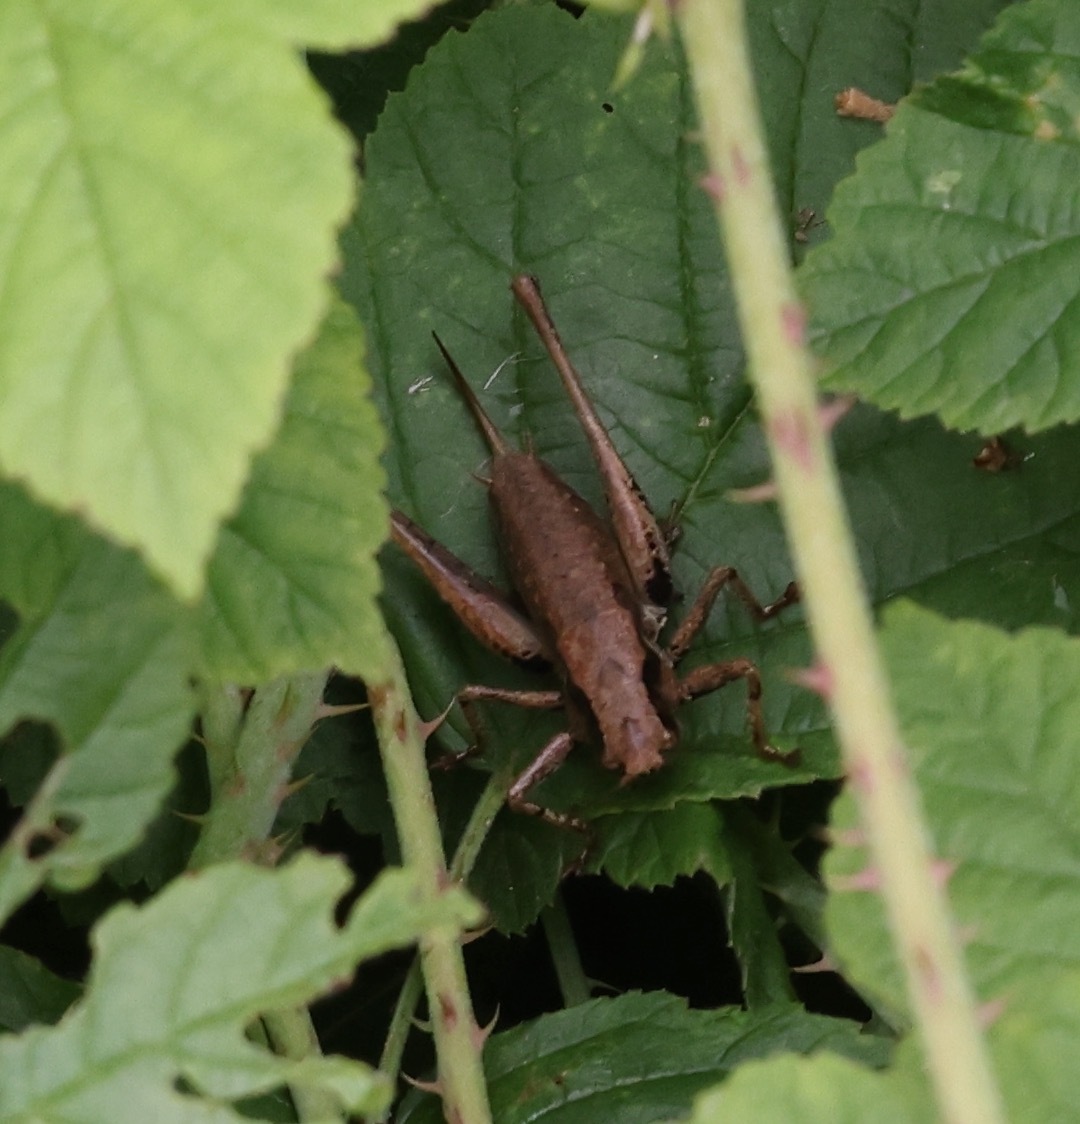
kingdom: Animalia
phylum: Arthropoda
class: Insecta
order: Orthoptera
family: Tettigoniidae
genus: Pholidoptera
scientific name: Pholidoptera griseoaptera
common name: Dark bush-cricket
